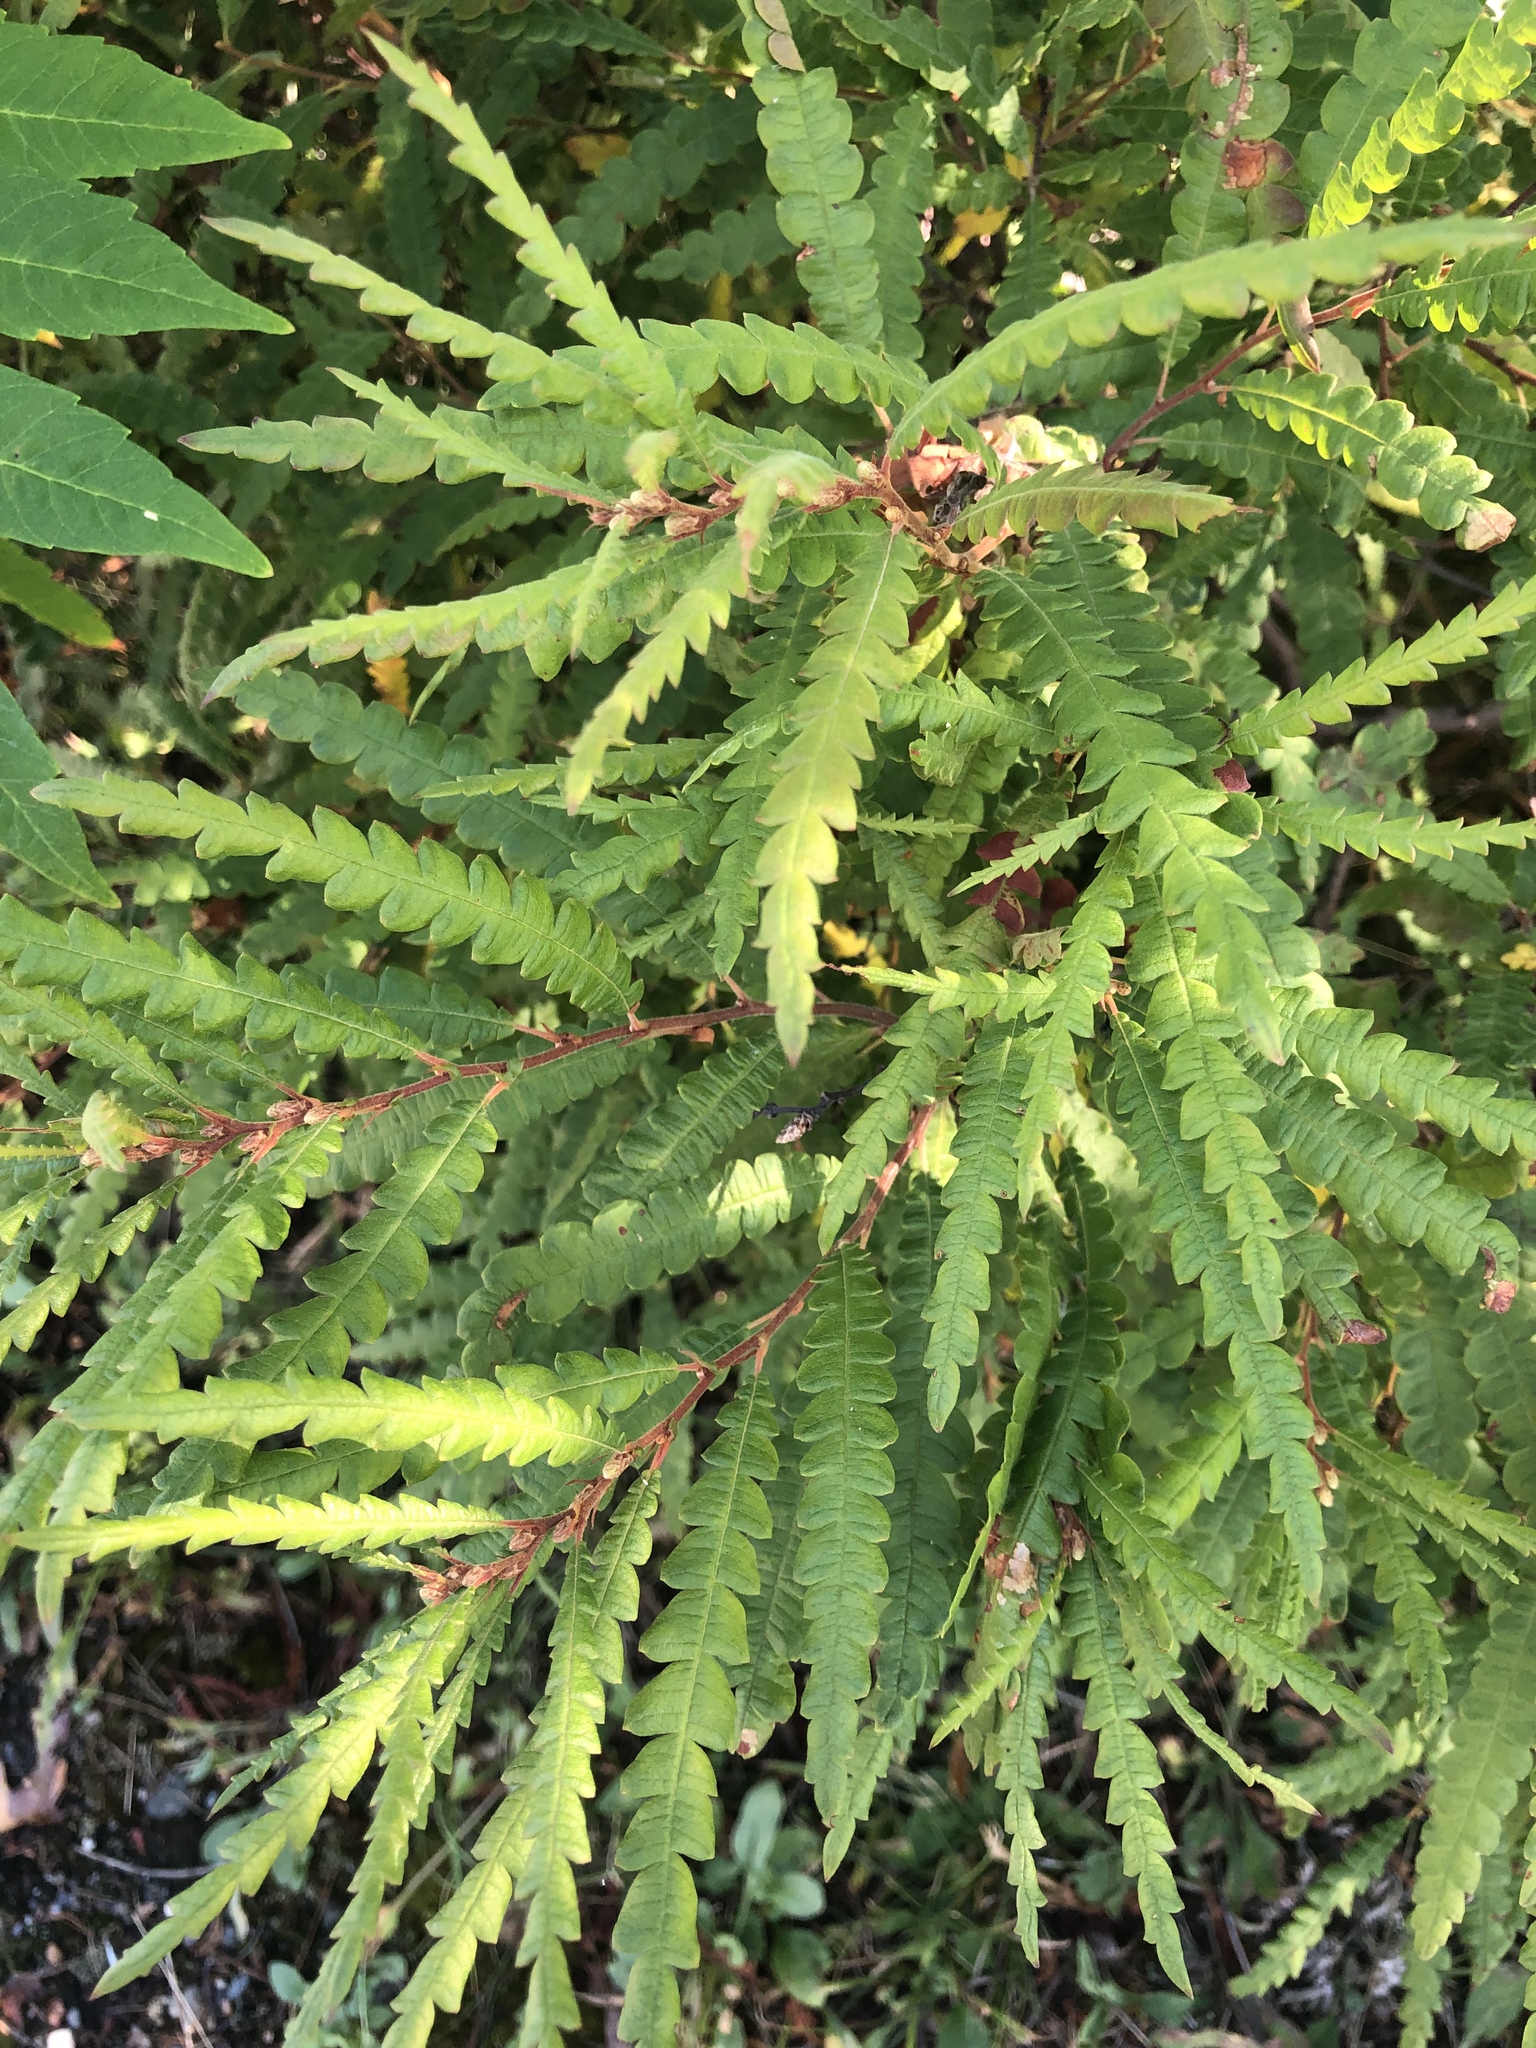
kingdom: Plantae
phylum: Tracheophyta
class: Magnoliopsida
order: Fagales
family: Myricaceae
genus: Comptonia
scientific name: Comptonia peregrina
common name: Sweet-fern
